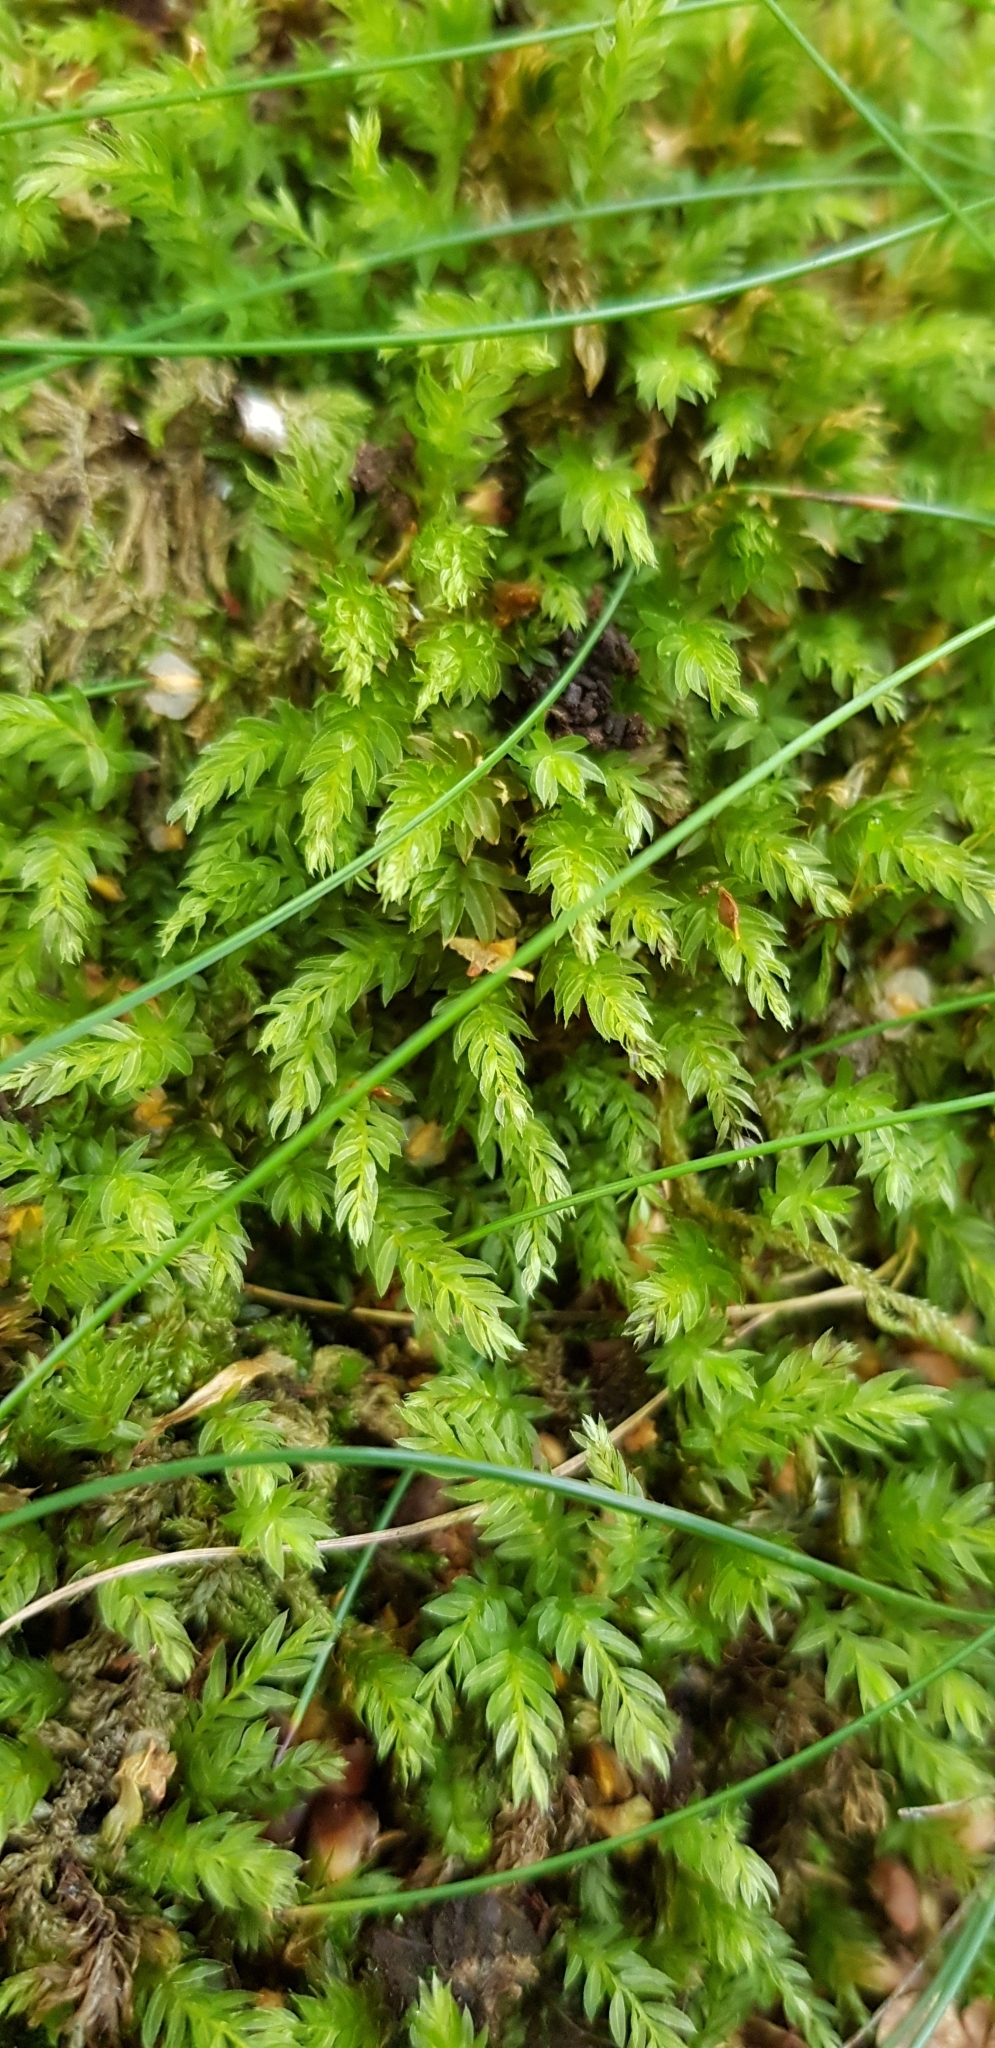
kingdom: Plantae
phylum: Bryophyta
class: Bryopsida
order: Bryales
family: Mniaceae
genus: Mnium
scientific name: Mnium hornum
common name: Swan's-neck leafy moss
